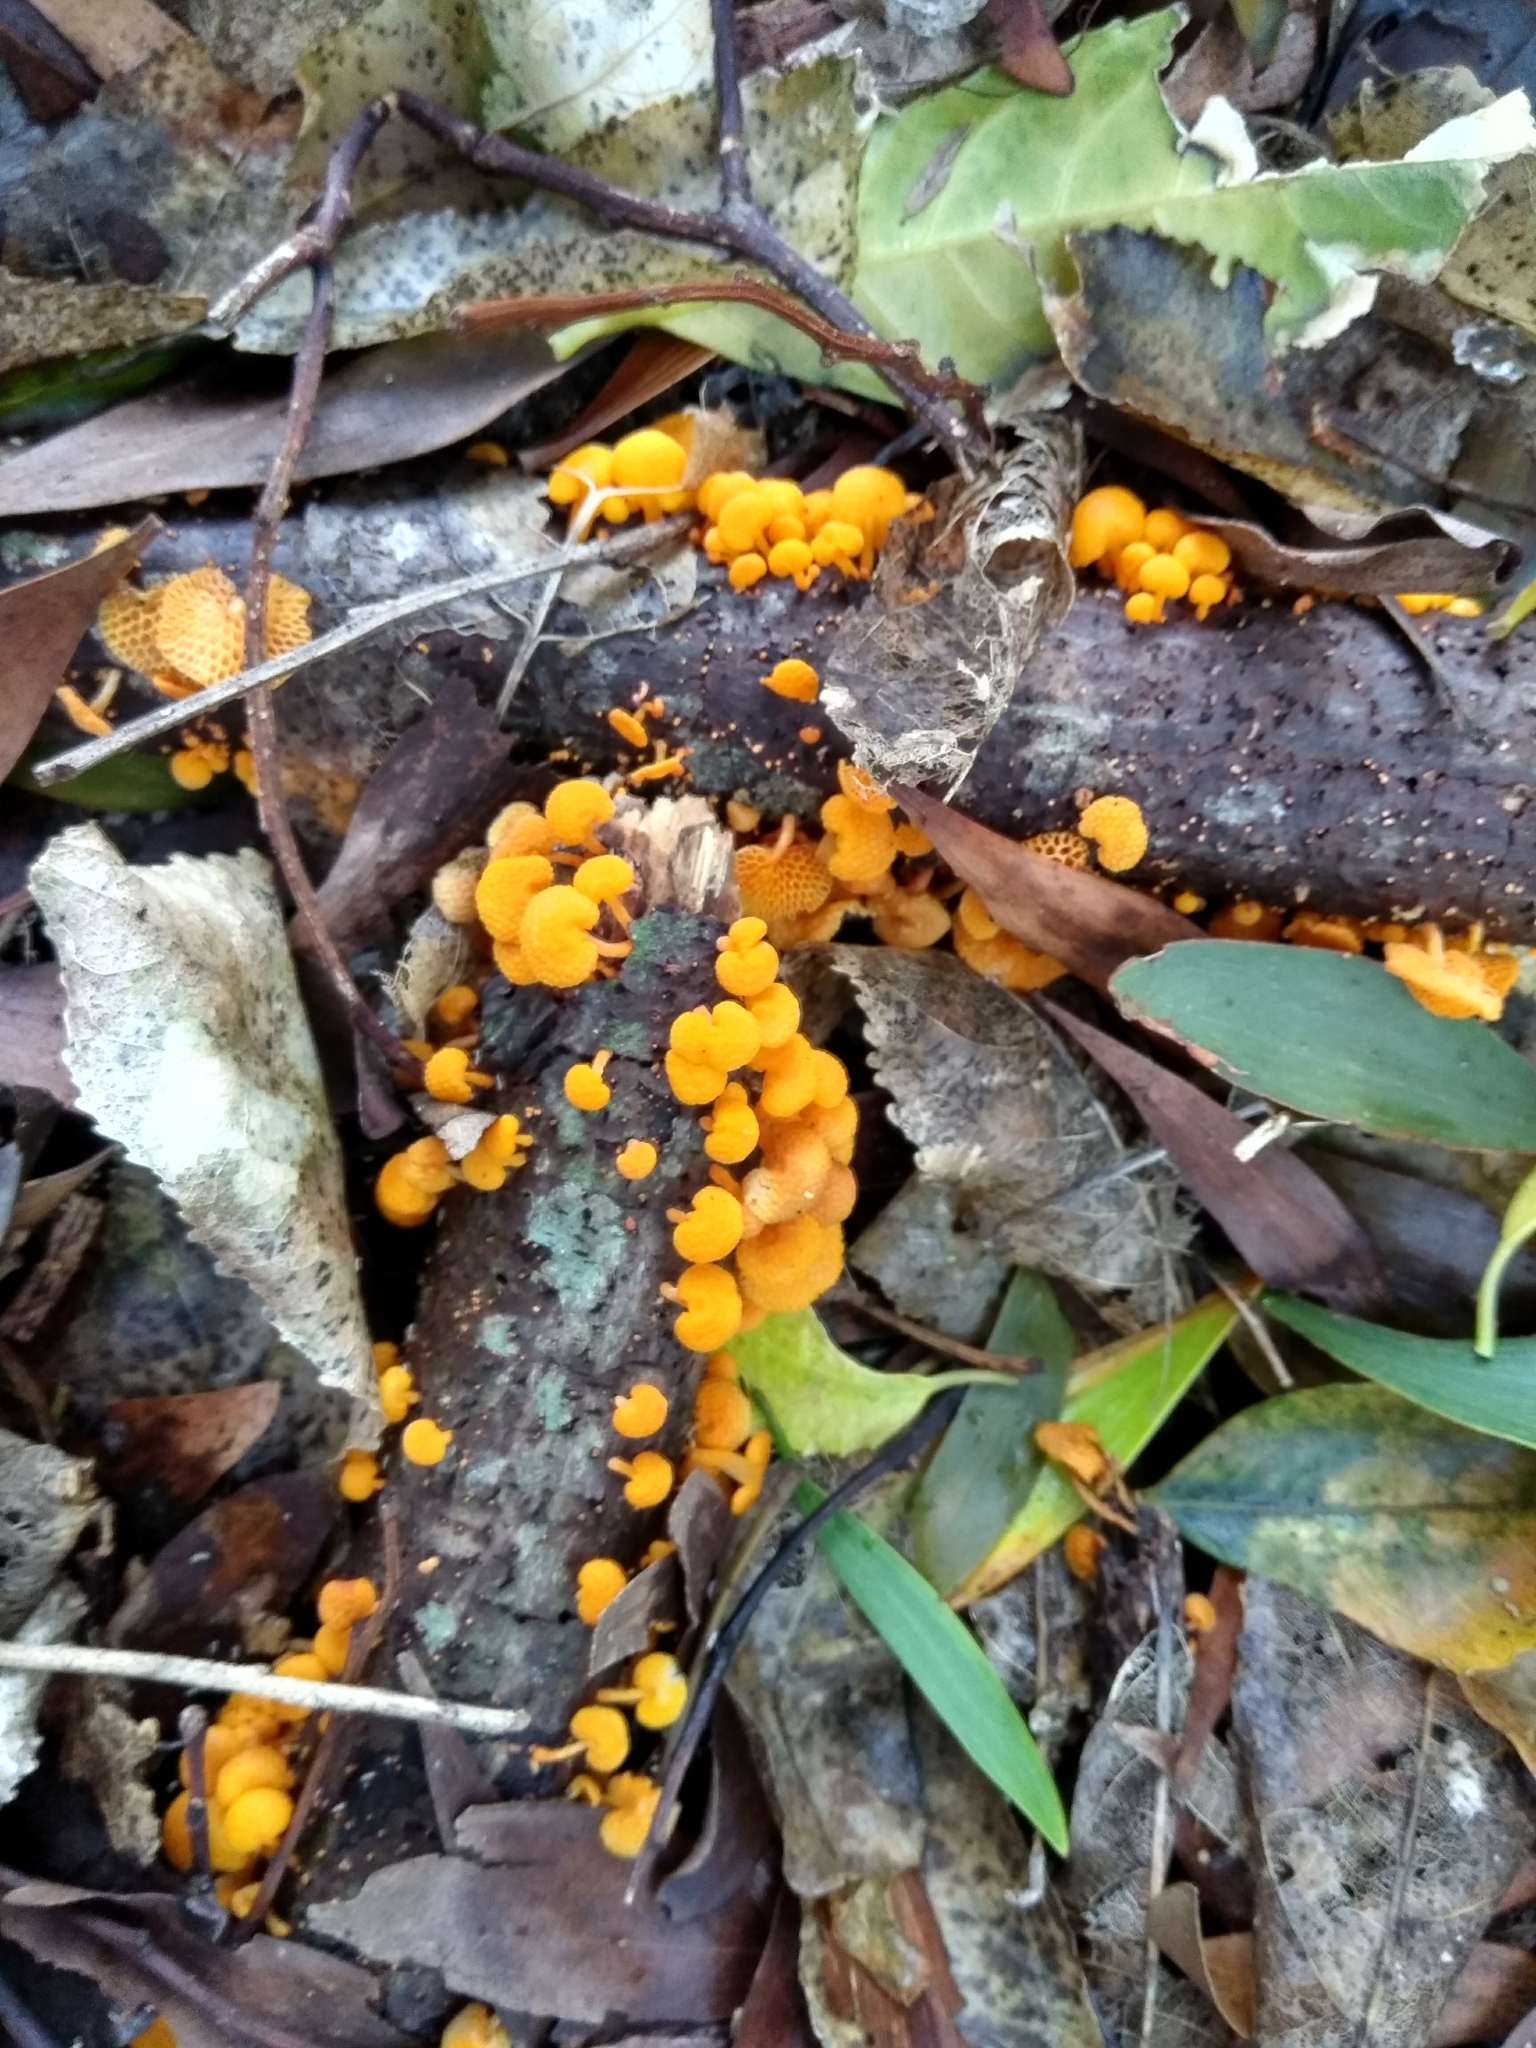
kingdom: Fungi
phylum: Basidiomycota
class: Agaricomycetes
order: Agaricales
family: Mycenaceae
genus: Favolaschia
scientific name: Favolaschia claudopus
